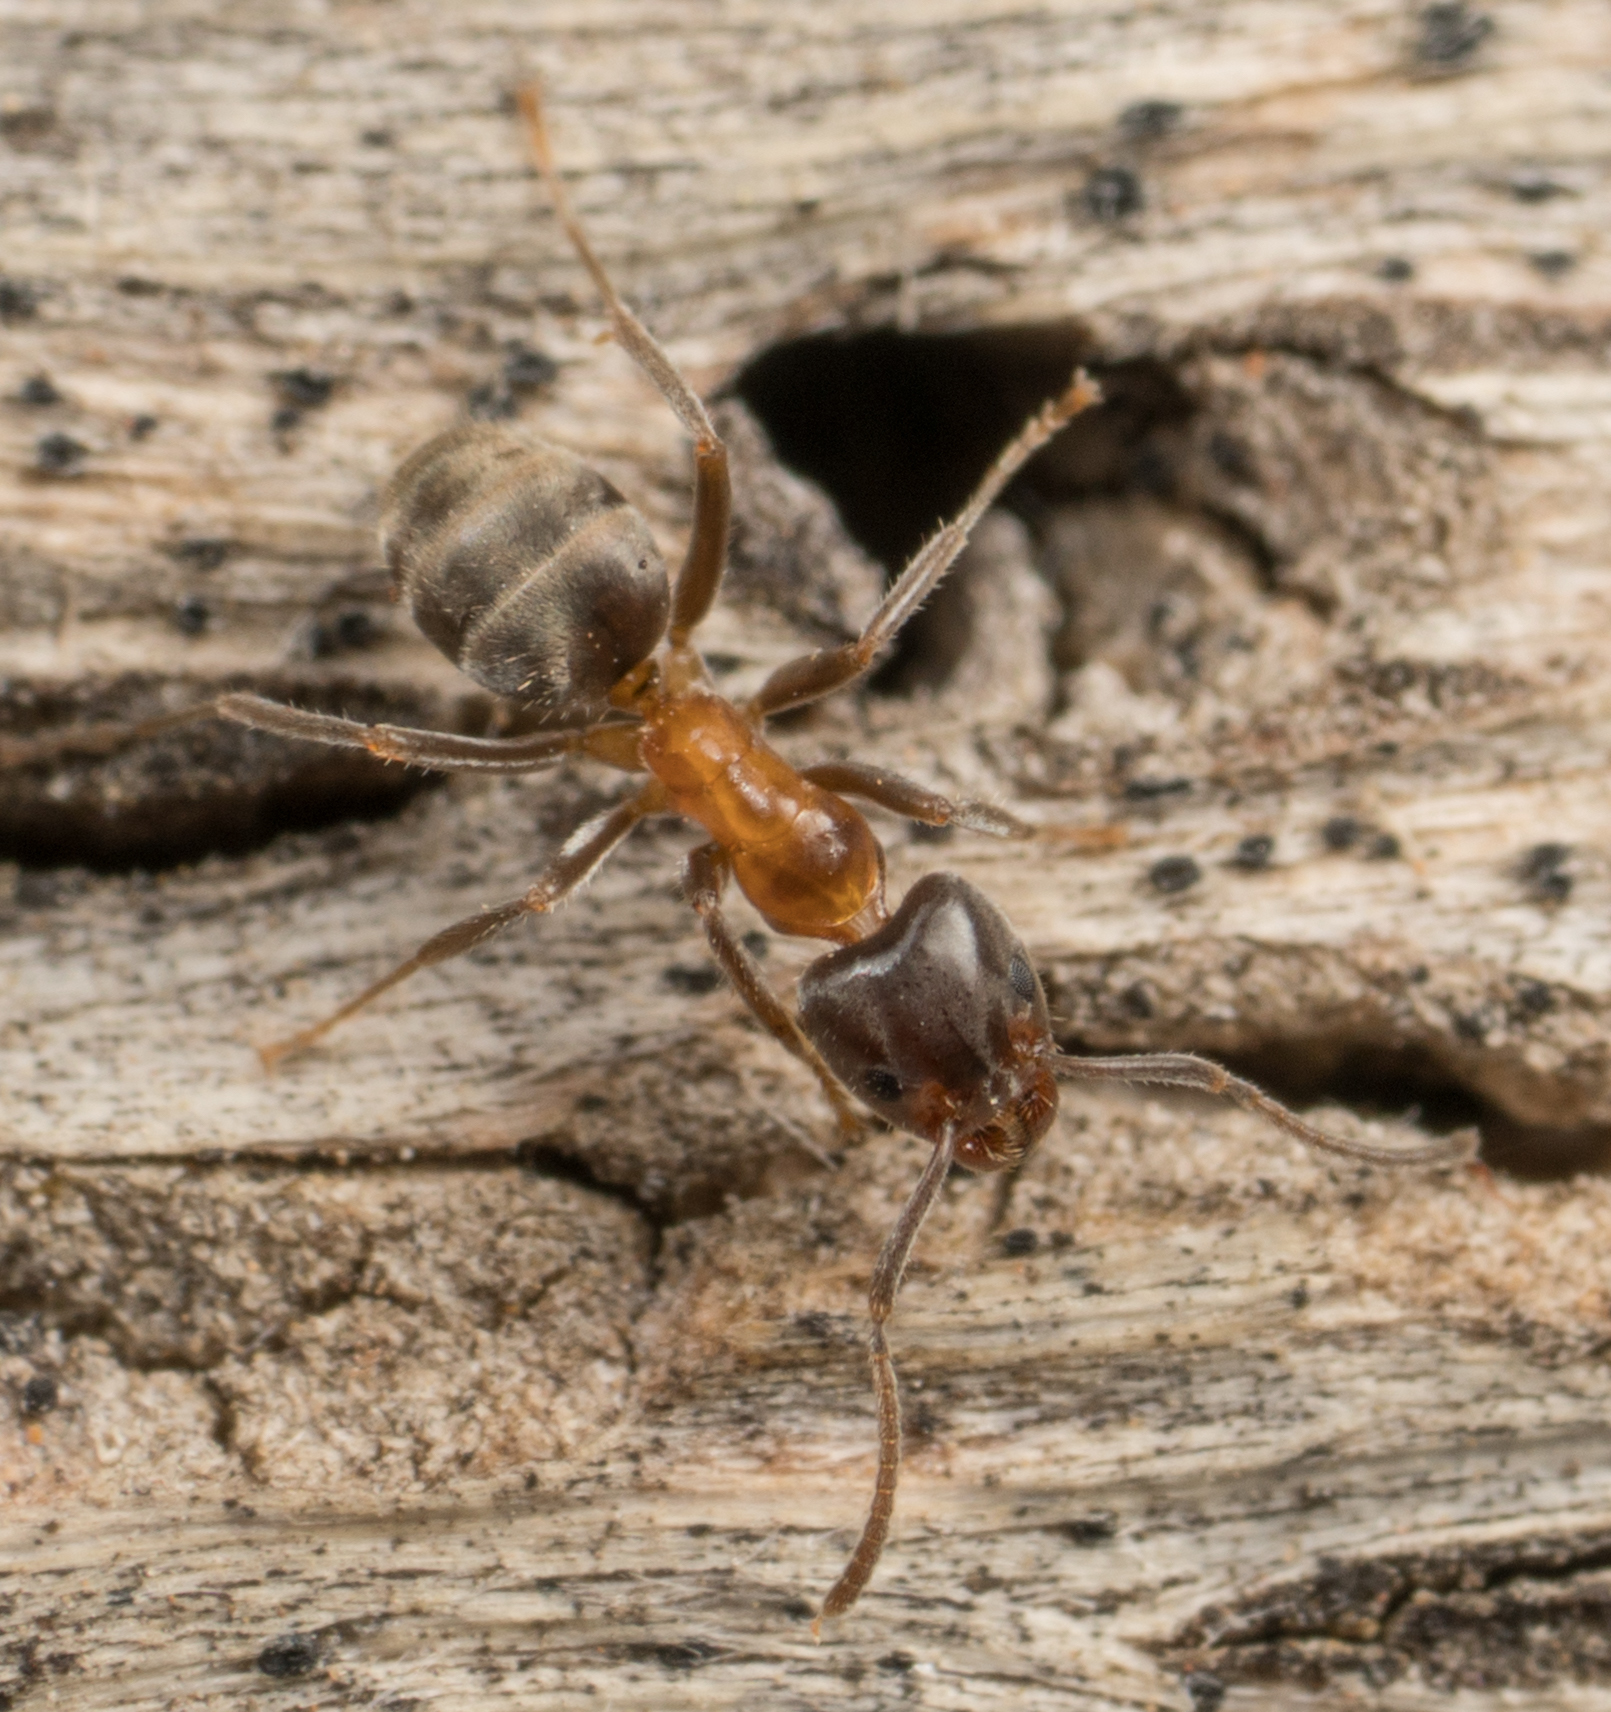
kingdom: Animalia
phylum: Arthropoda
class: Insecta
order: Hymenoptera
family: Formicidae
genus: Liometopum
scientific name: Liometopum occidentale
